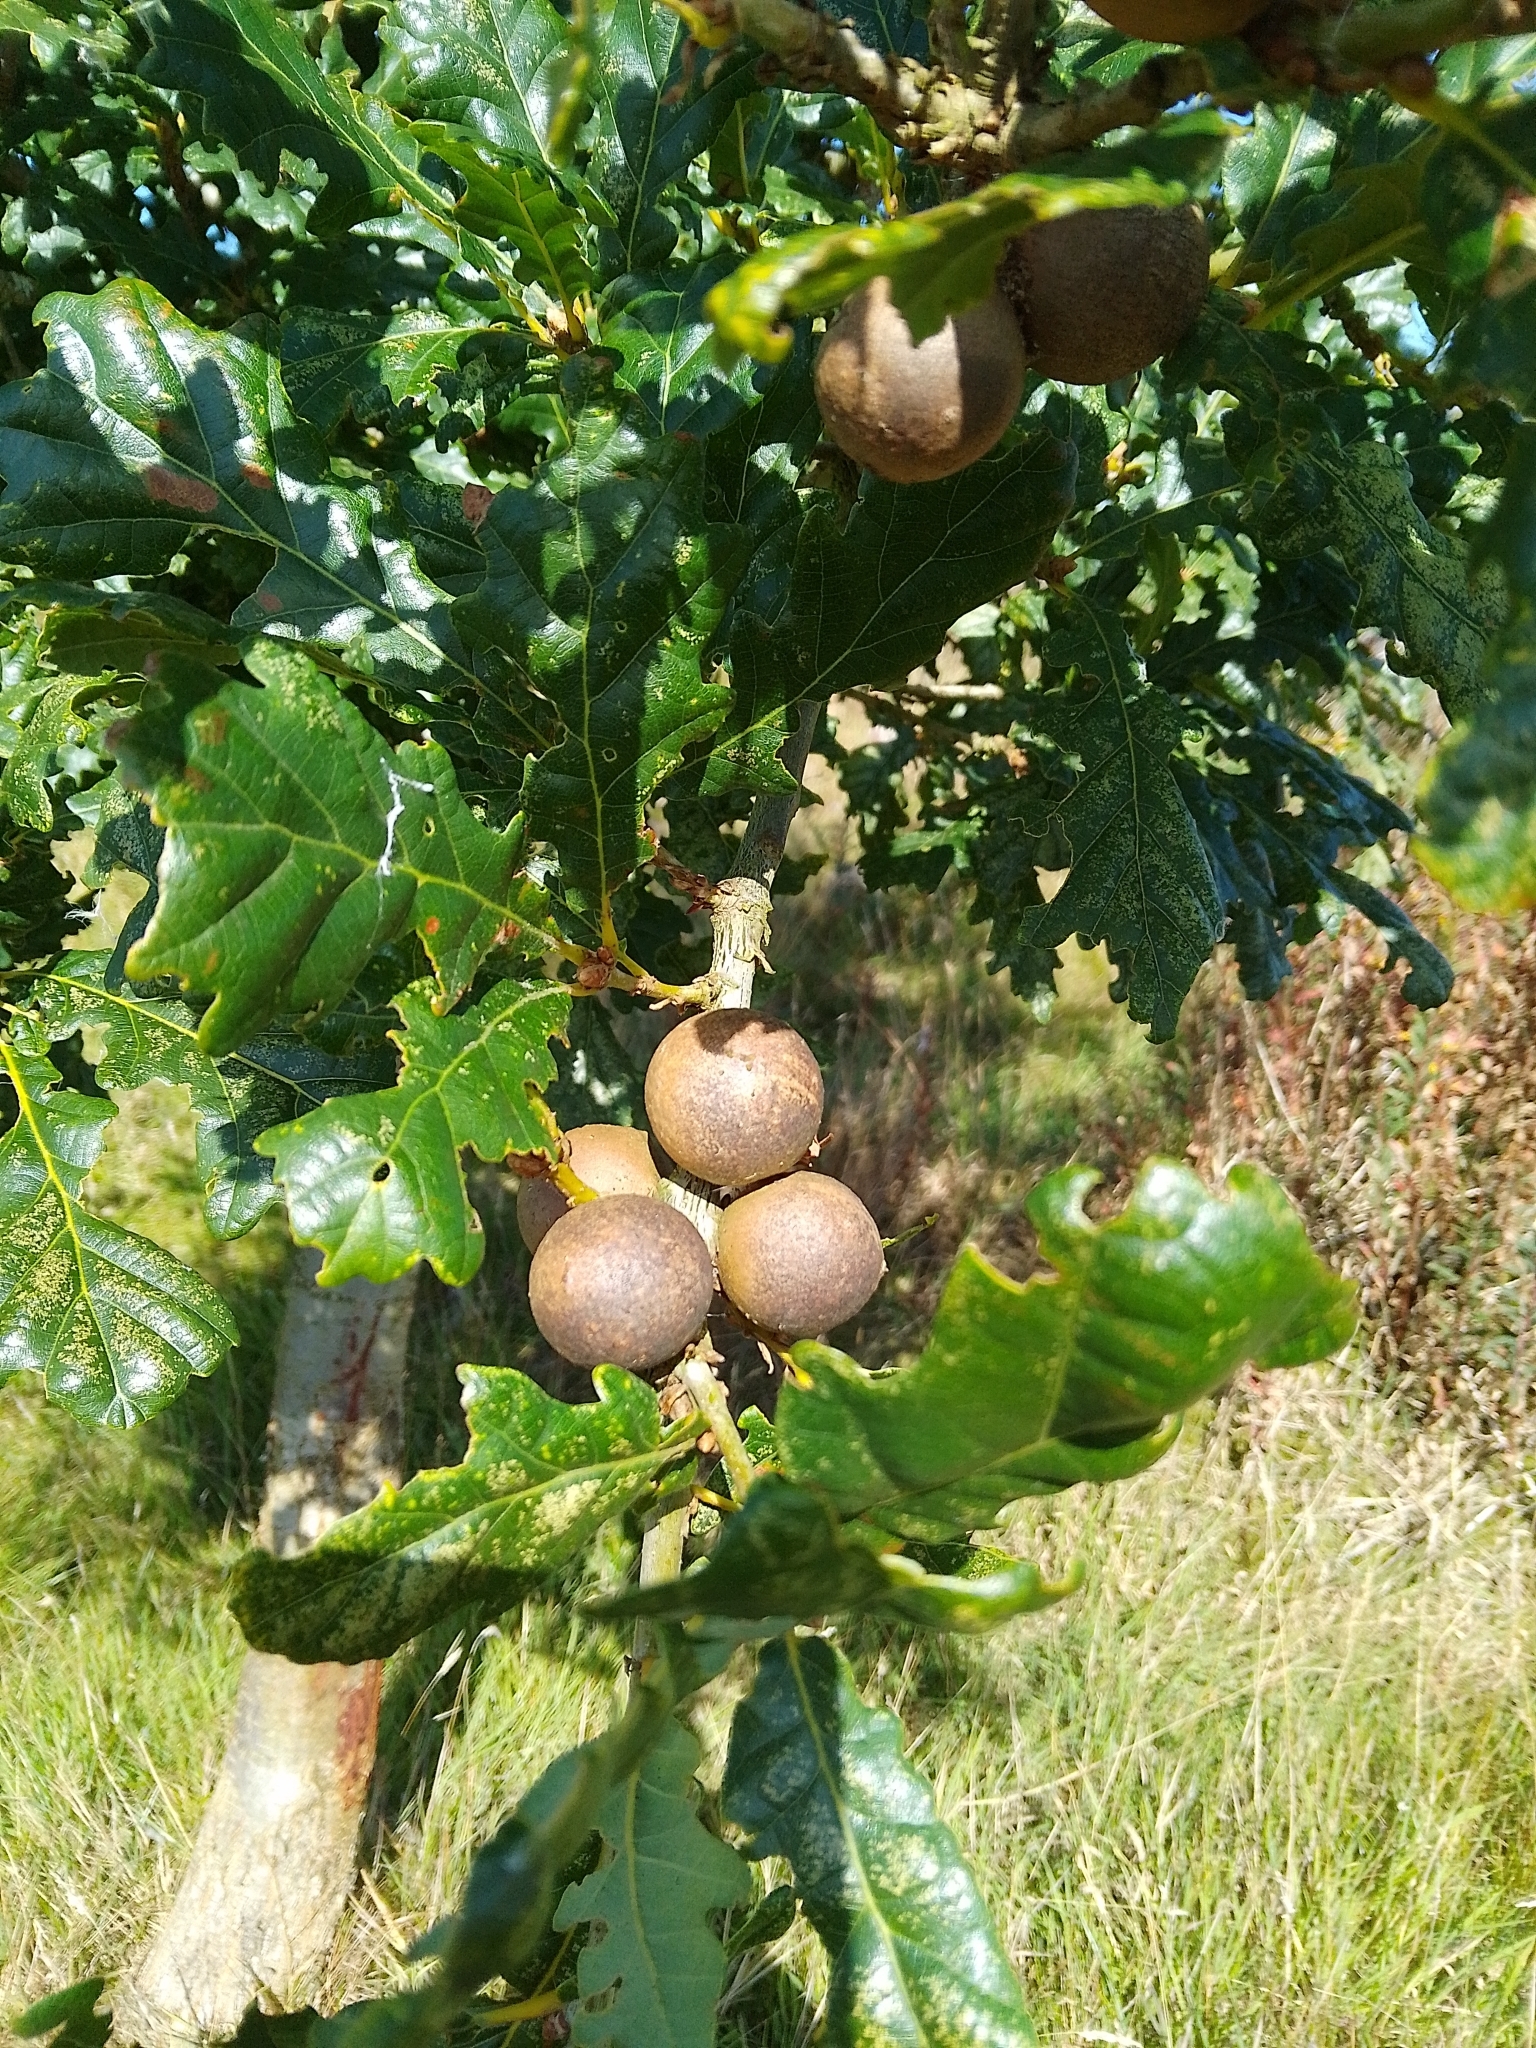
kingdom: Animalia
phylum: Arthropoda
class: Insecta
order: Hymenoptera
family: Cynipidae
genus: Andricus
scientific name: Andricus kollari
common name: Marble gall
